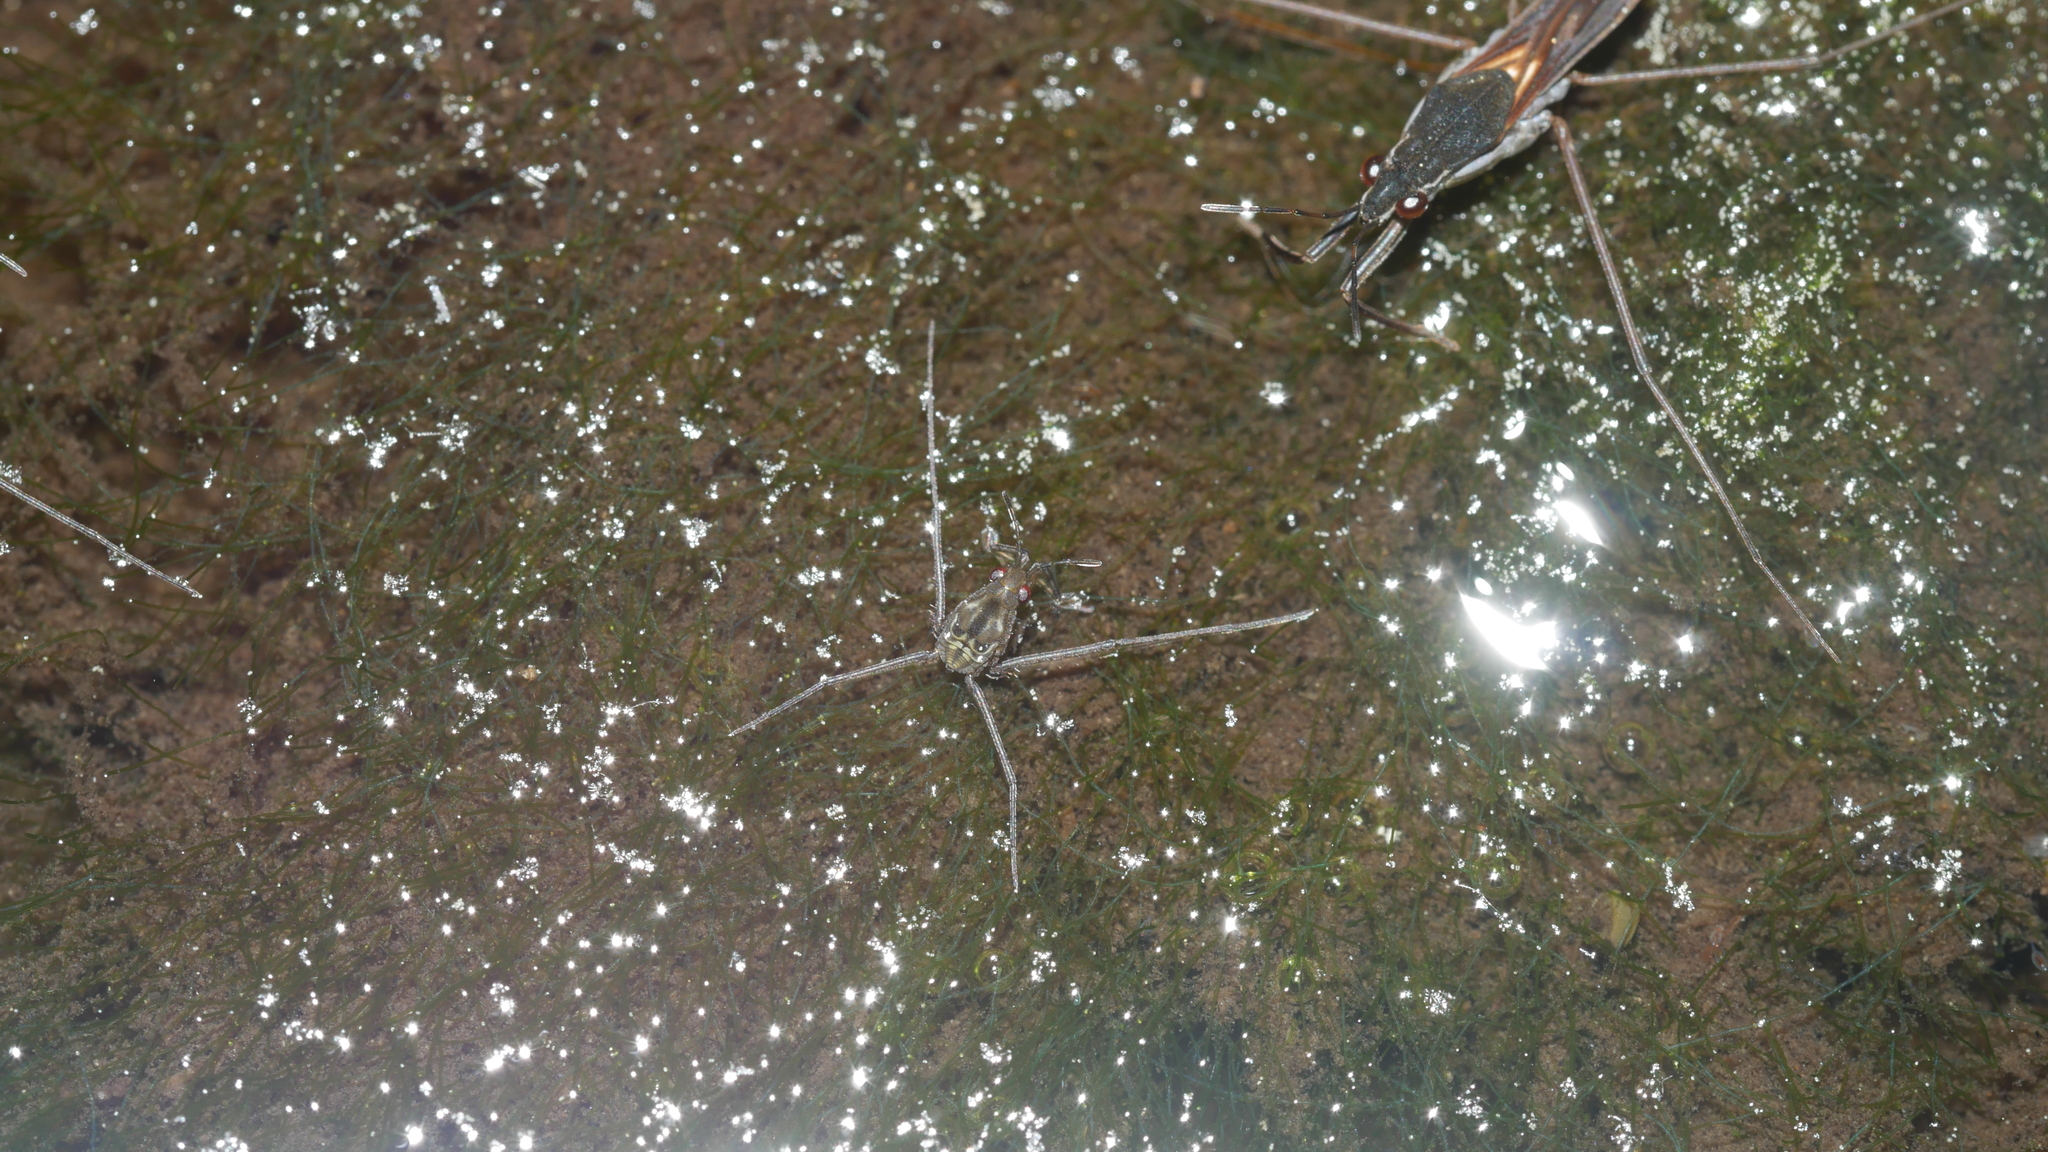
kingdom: Animalia
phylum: Arthropoda
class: Insecta
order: Hemiptera
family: Gerridae
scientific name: Gerridae
